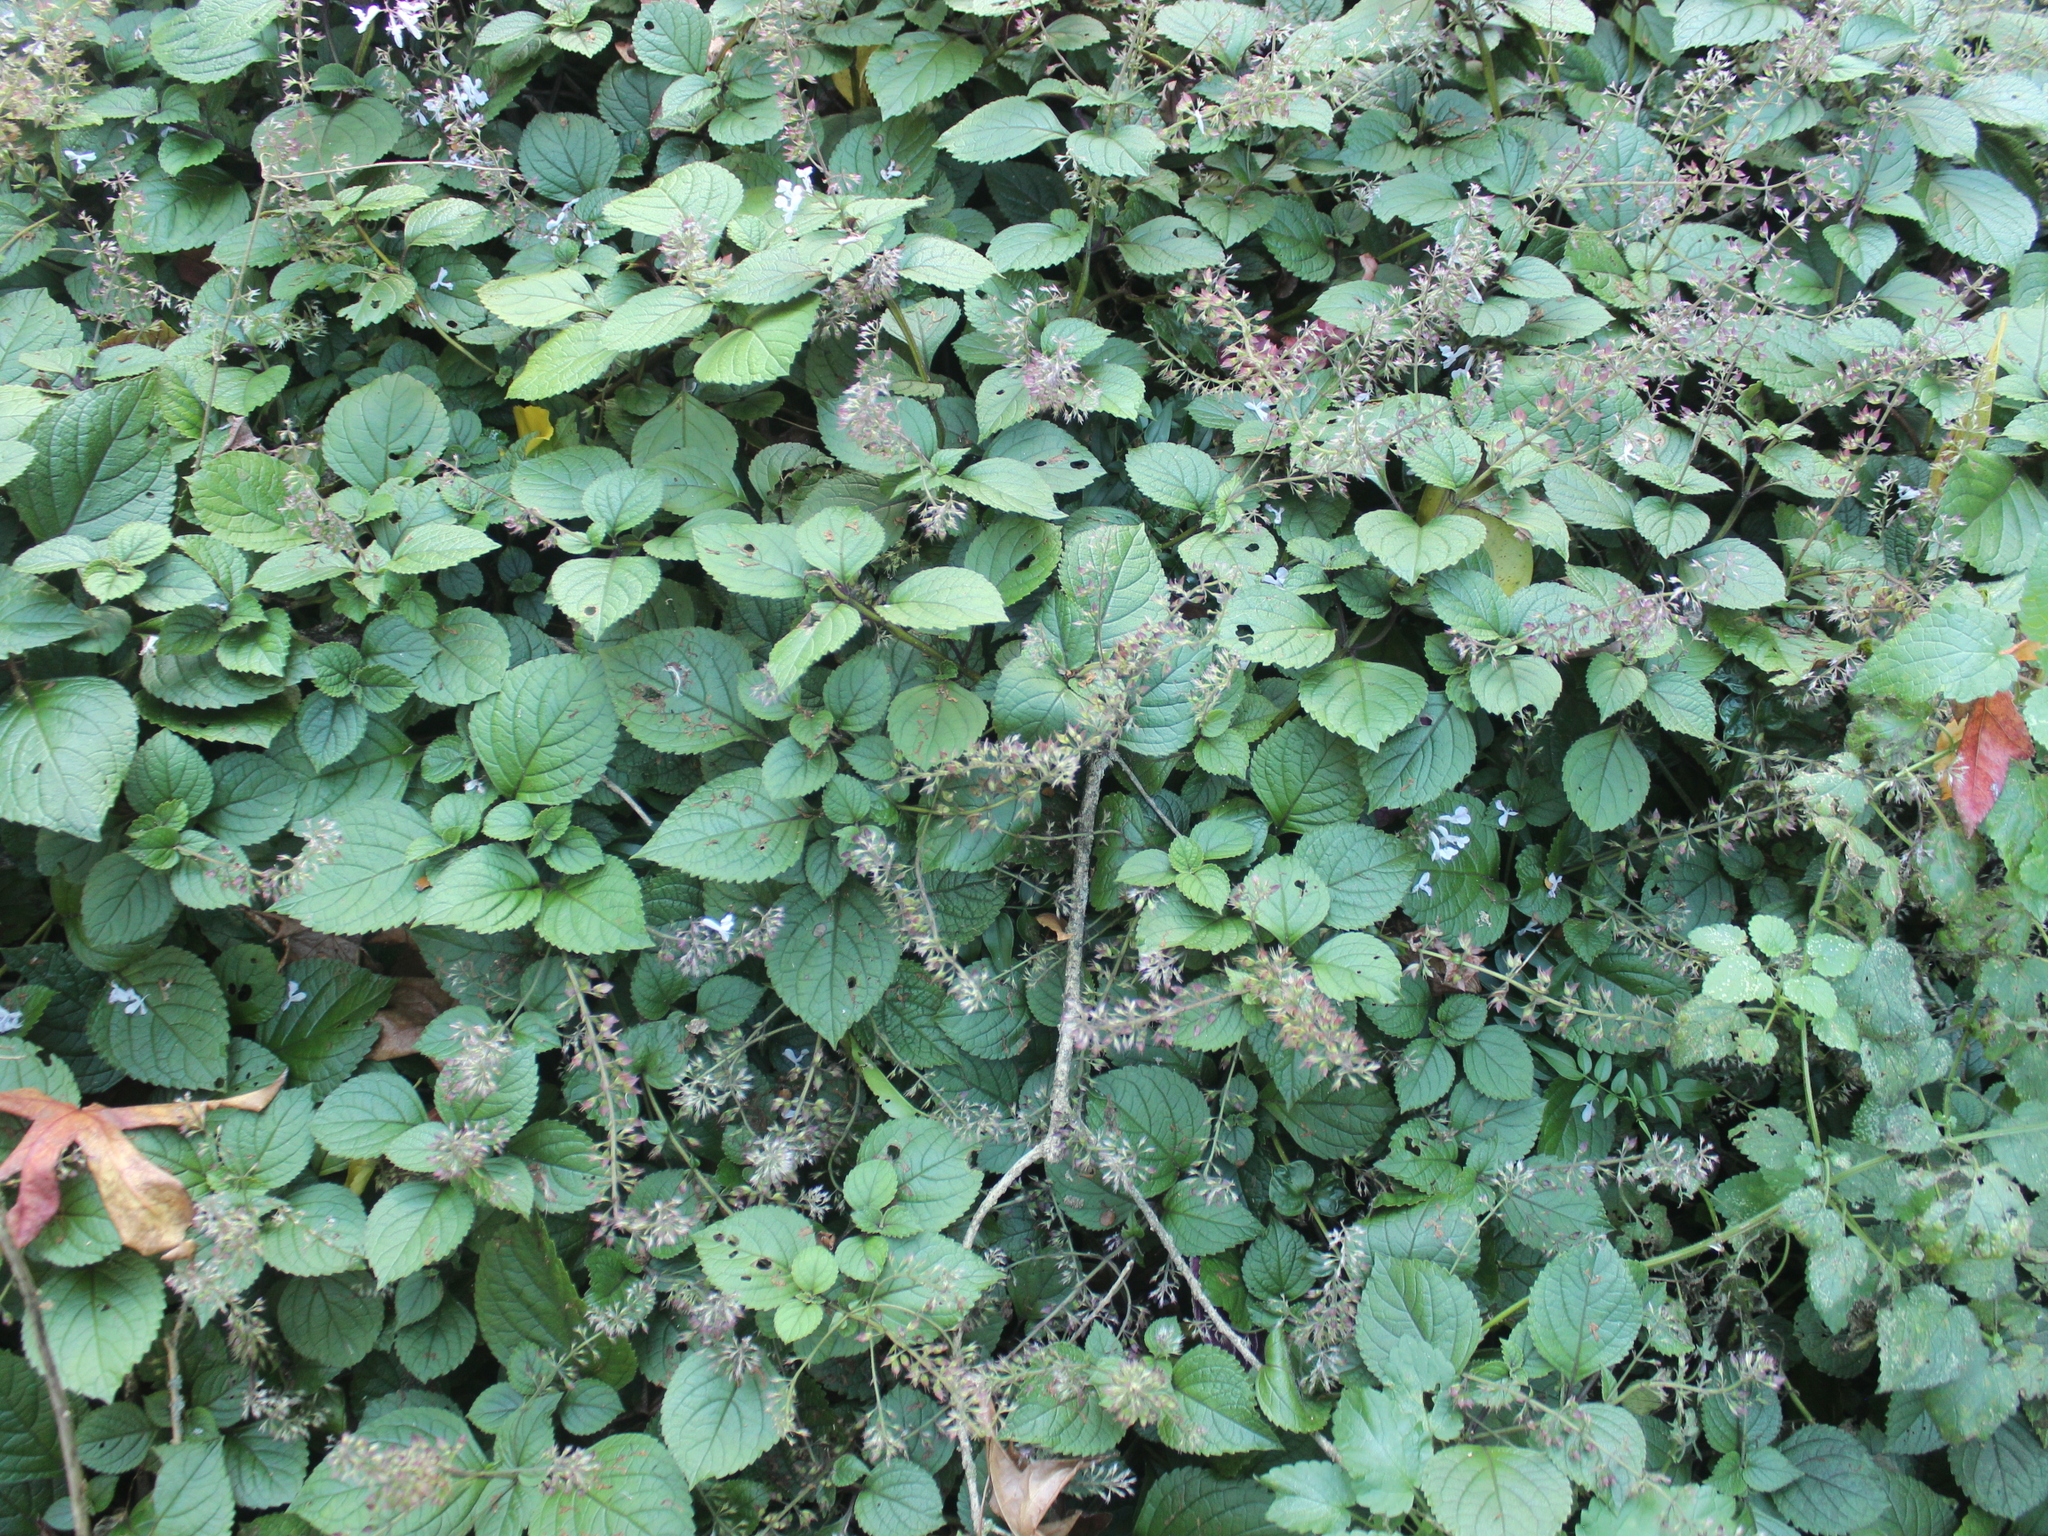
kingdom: Plantae
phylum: Tracheophyta
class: Magnoliopsida
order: Lamiales
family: Lamiaceae
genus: Plectranthus
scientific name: Plectranthus ciliatus
